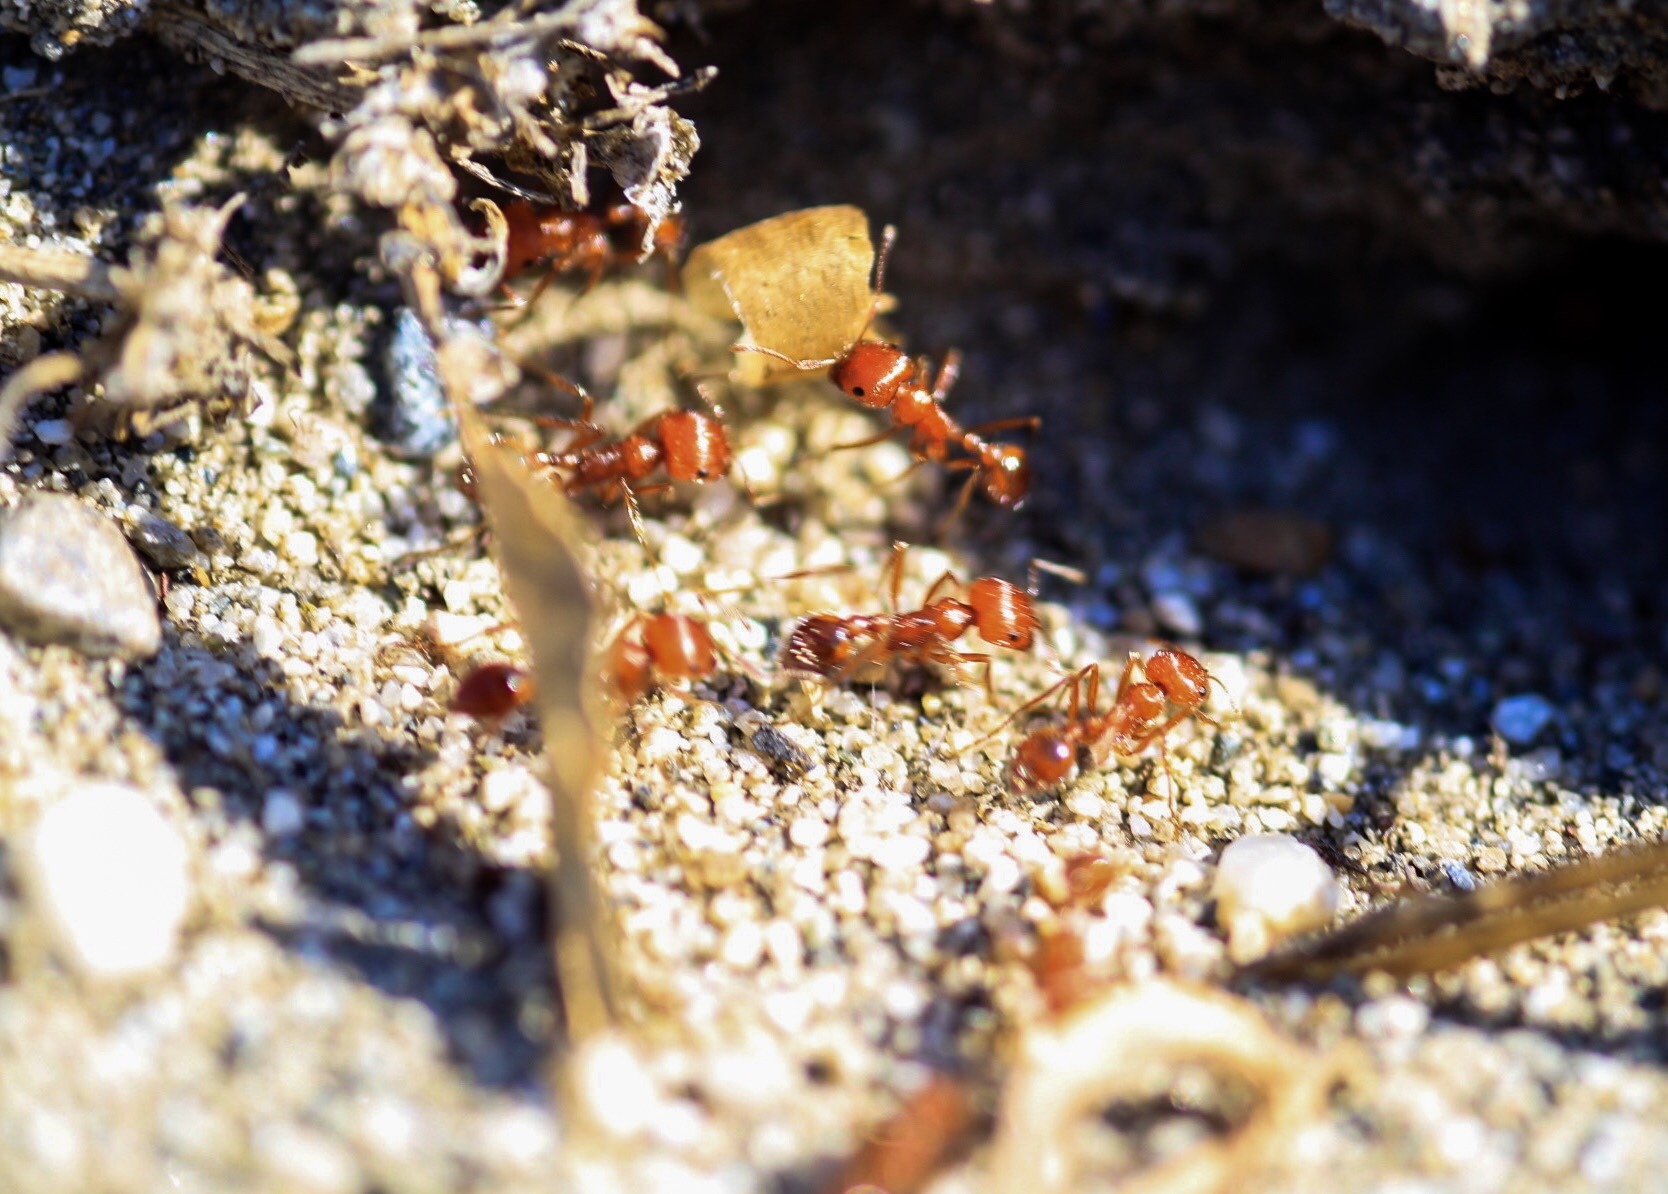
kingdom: Animalia
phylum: Arthropoda
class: Insecta
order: Hymenoptera
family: Formicidae
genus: Pogonomyrmex
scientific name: Pogonomyrmex californicus
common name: California harvester ant
